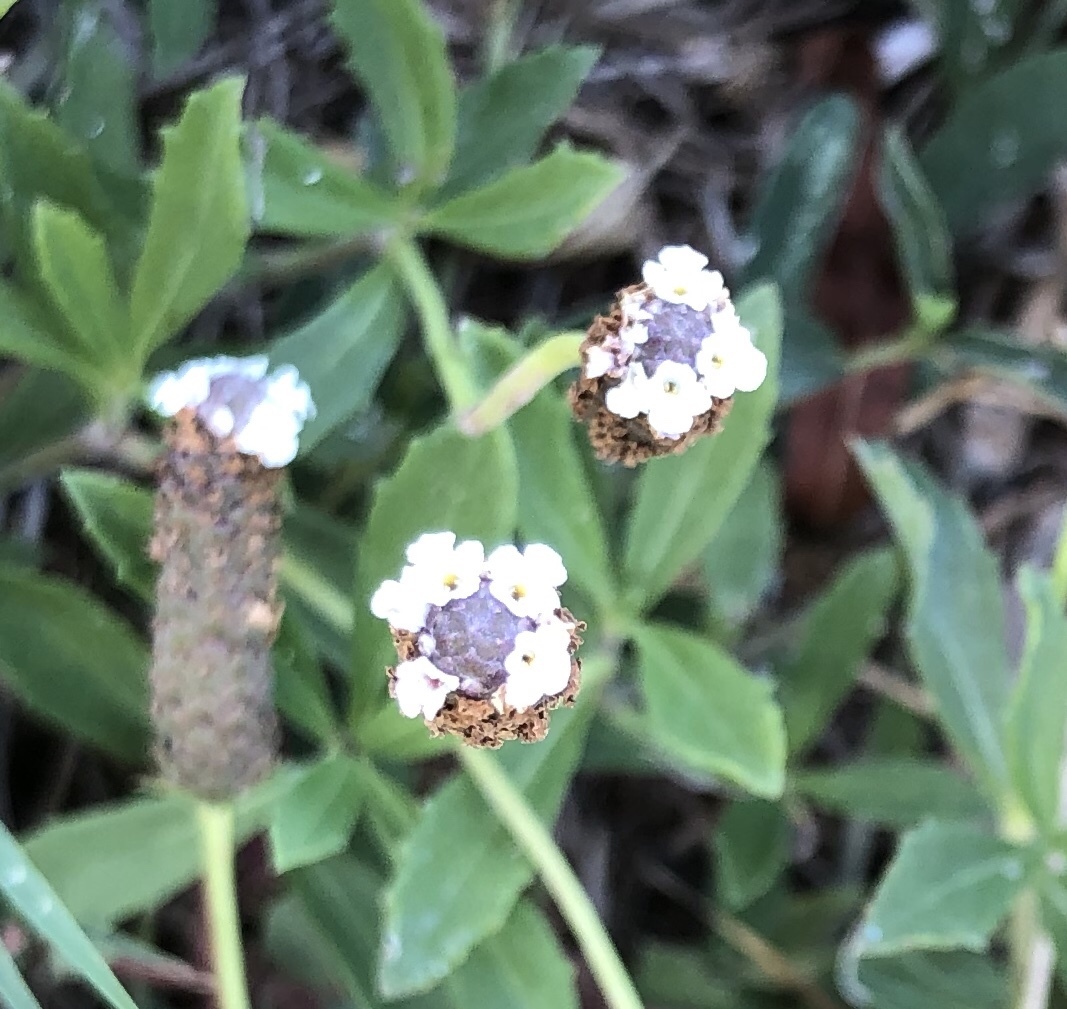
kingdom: Plantae
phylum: Tracheophyta
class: Magnoliopsida
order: Lamiales
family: Verbenaceae
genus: Phyla
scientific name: Phyla nodiflora
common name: Frogfruit
